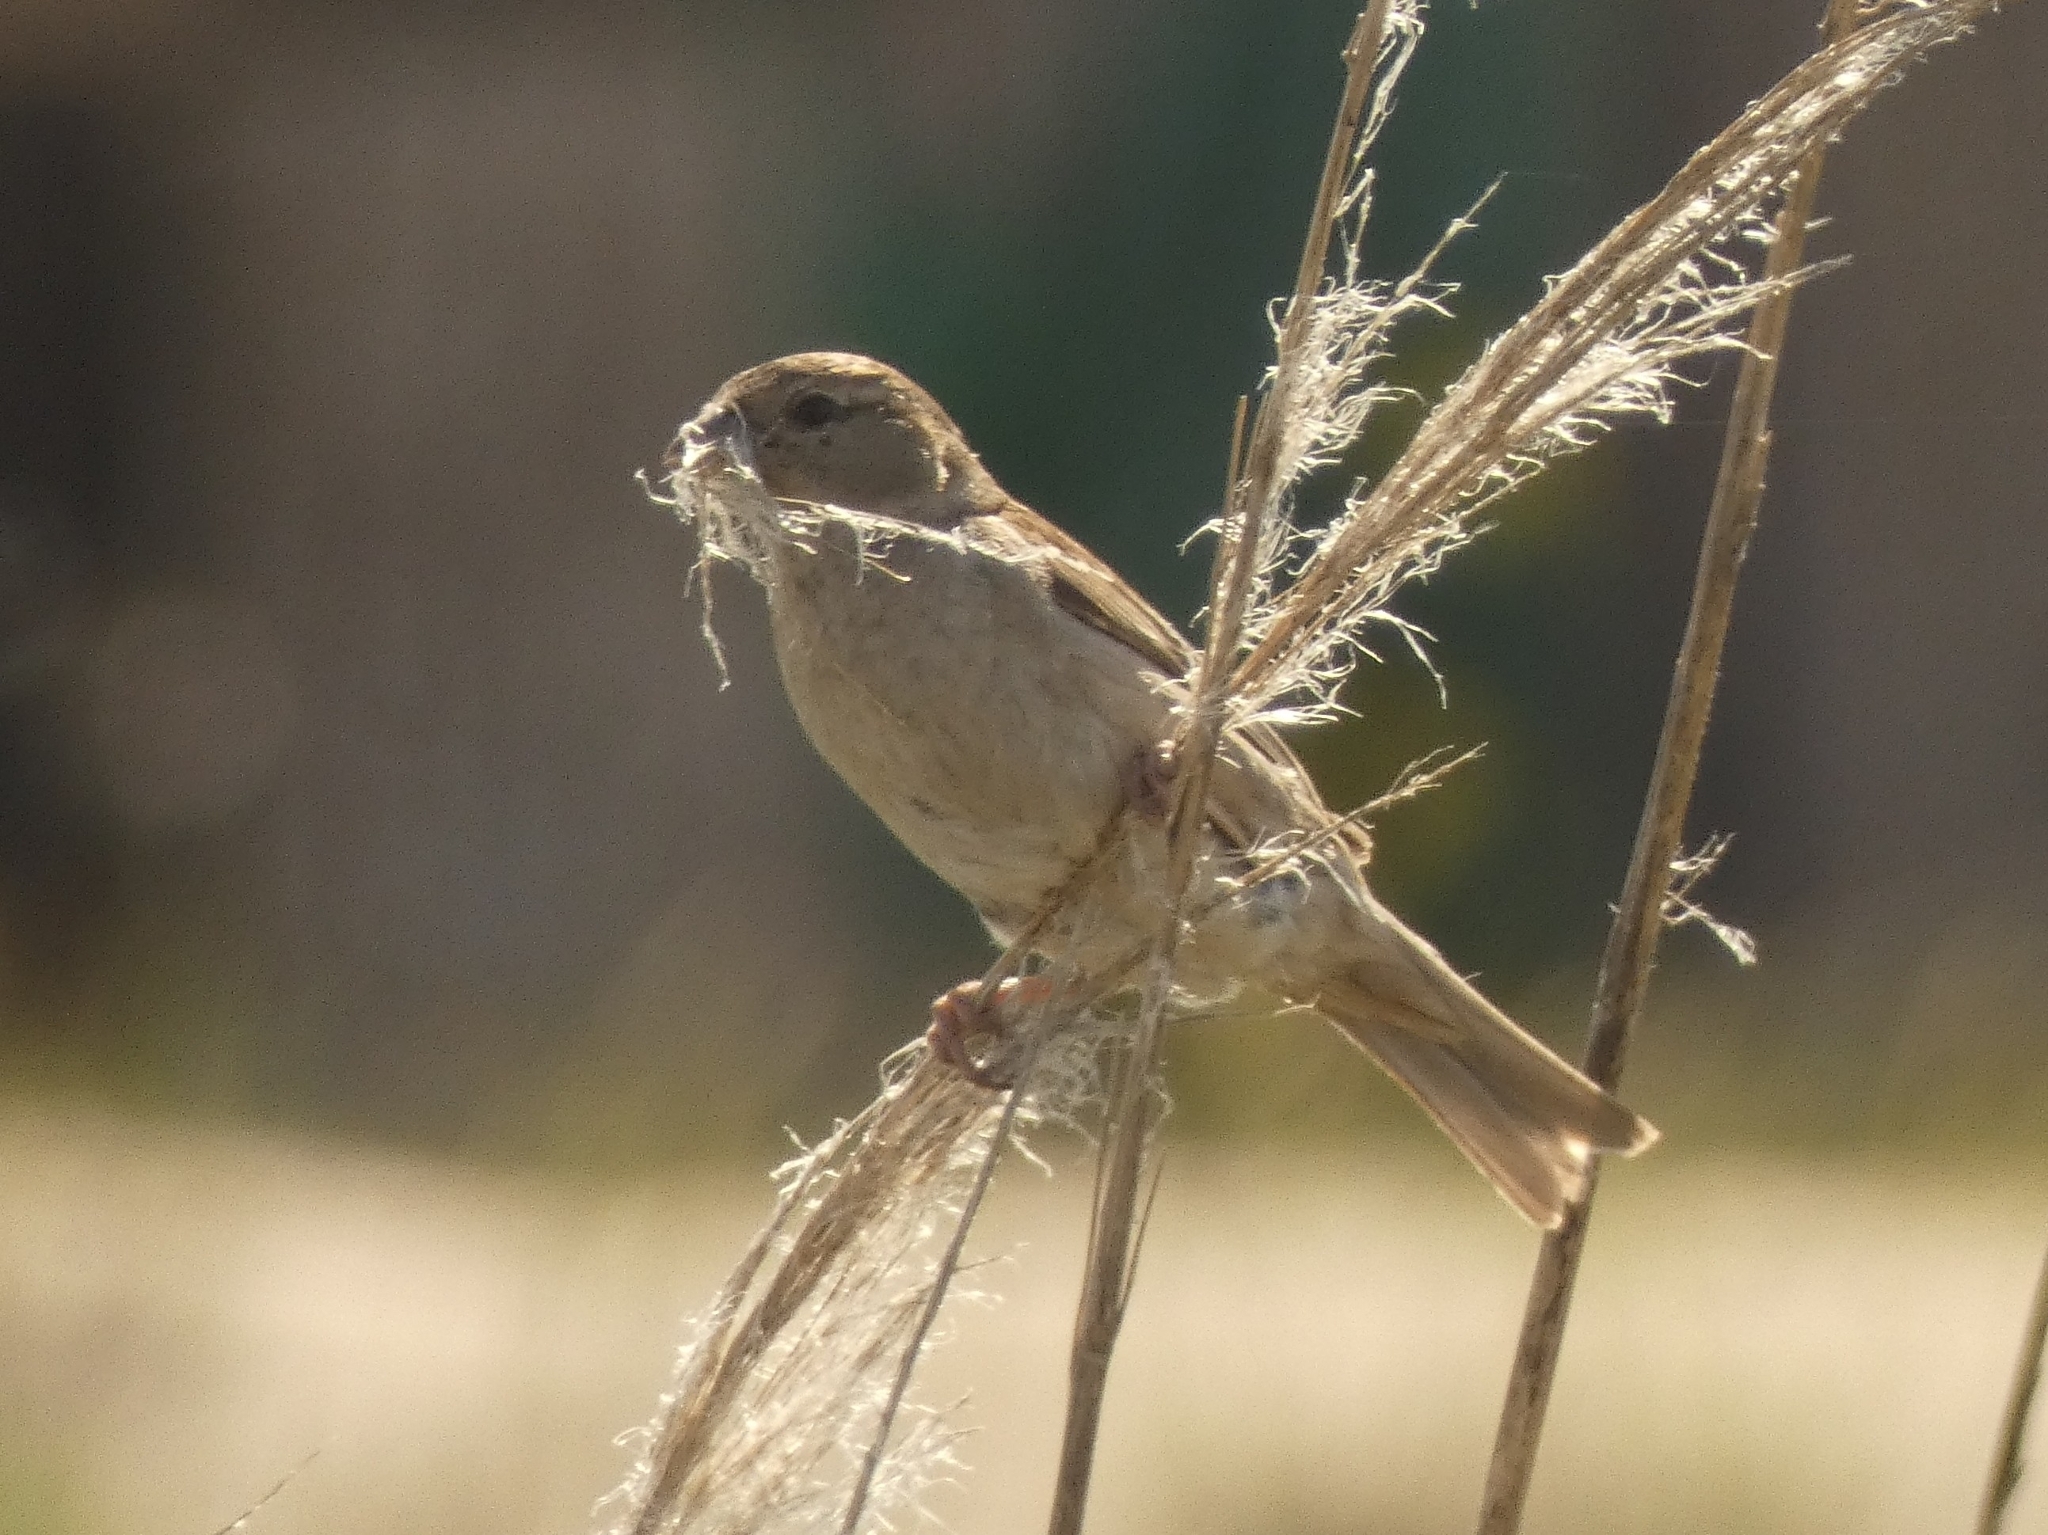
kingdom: Animalia
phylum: Chordata
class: Aves
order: Passeriformes
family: Passeridae
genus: Passer
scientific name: Passer domesticus
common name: House sparrow
